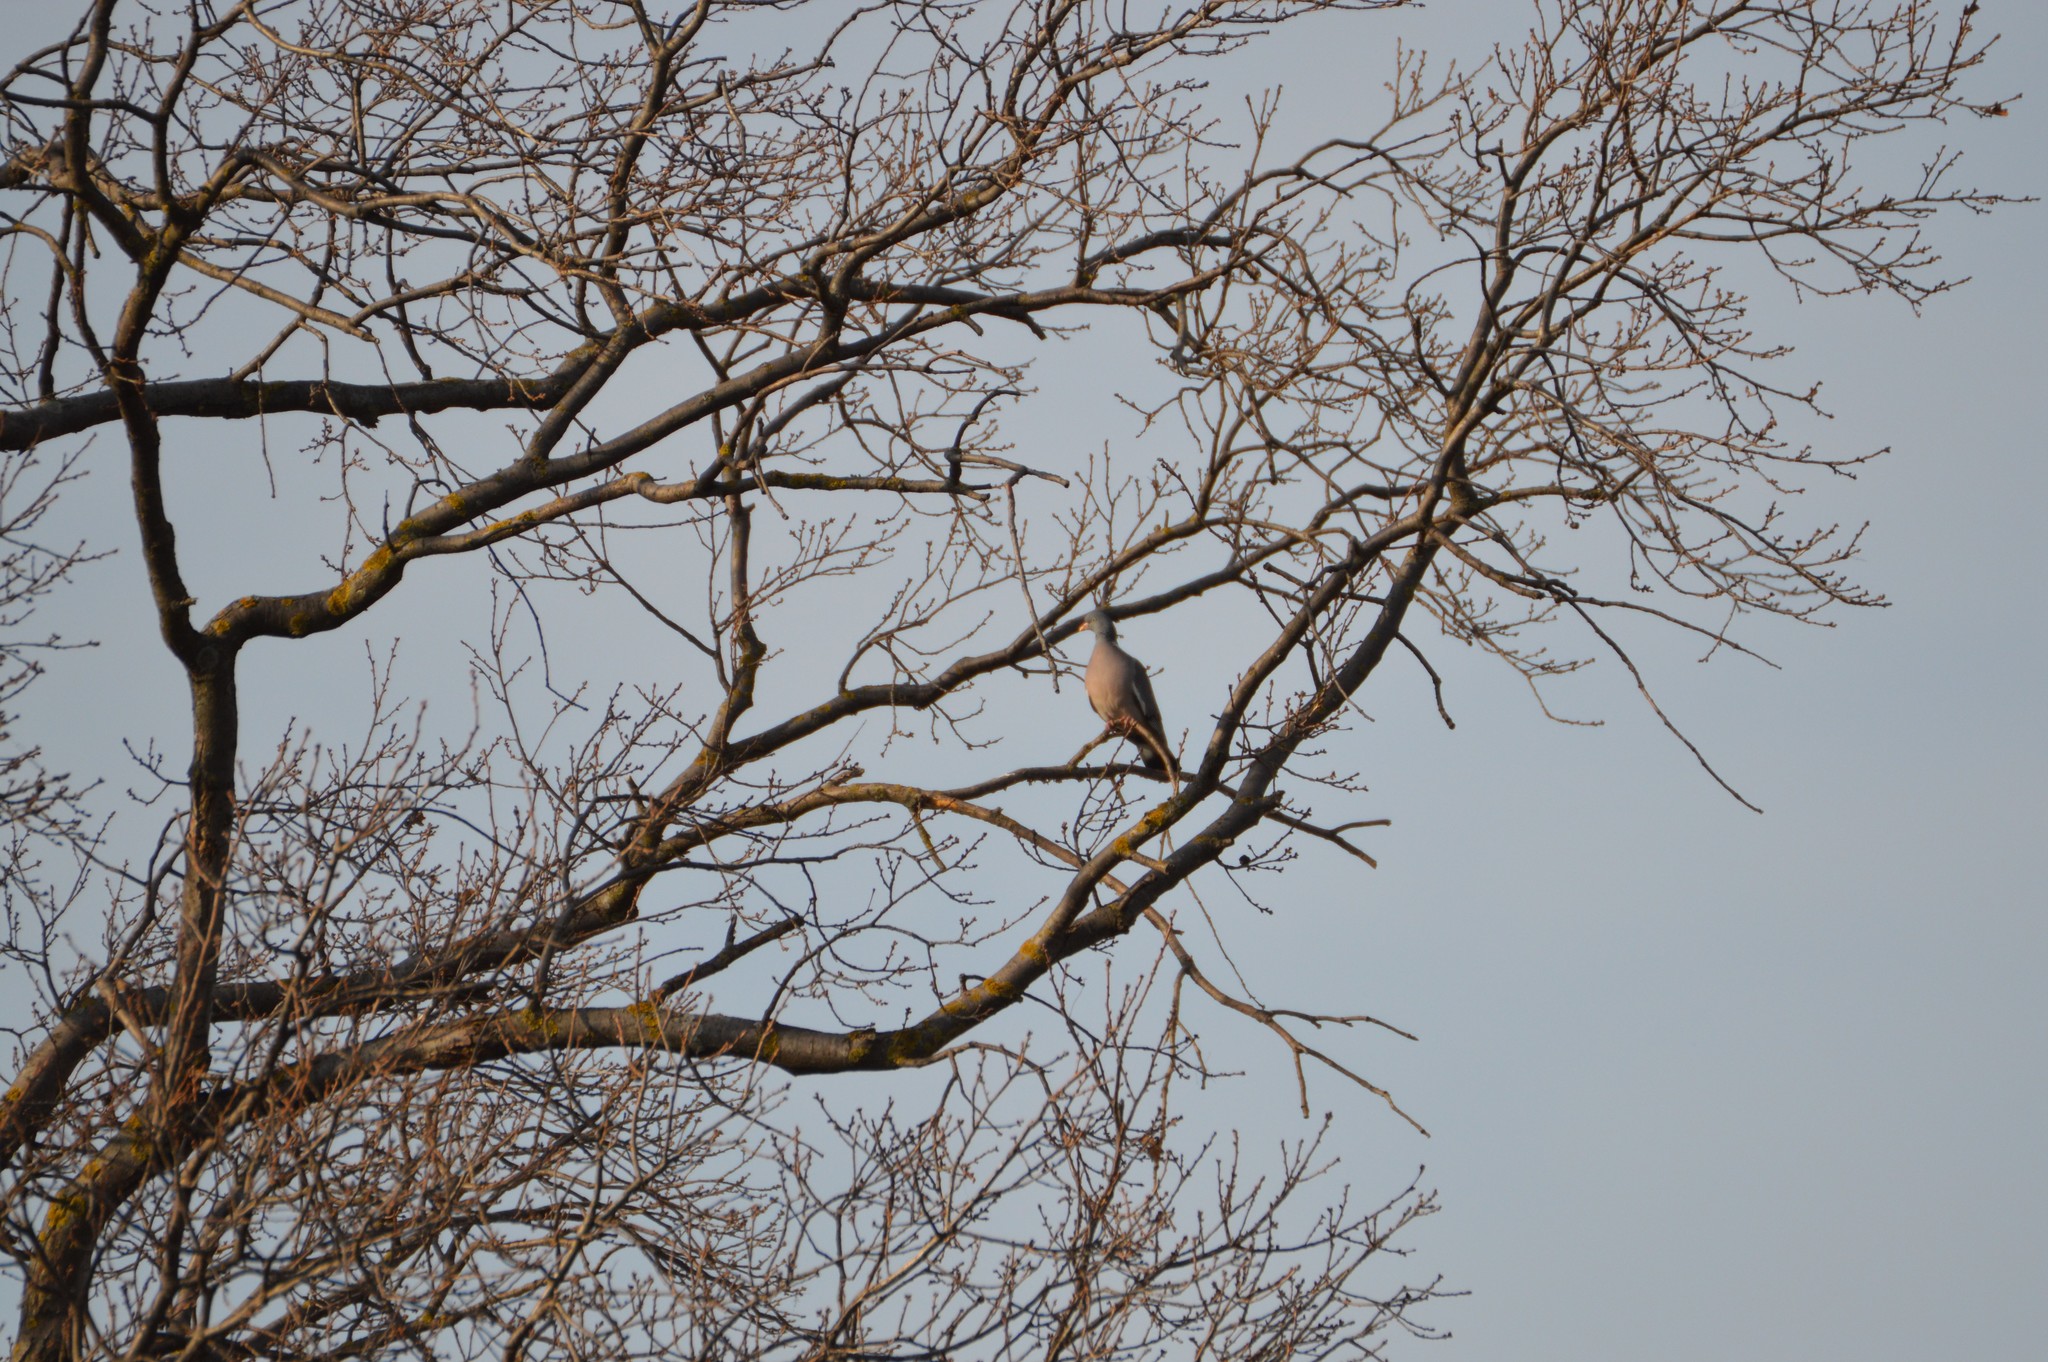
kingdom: Animalia
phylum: Chordata
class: Aves
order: Columbiformes
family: Columbidae
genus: Columba
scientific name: Columba palumbus
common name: Common wood pigeon
